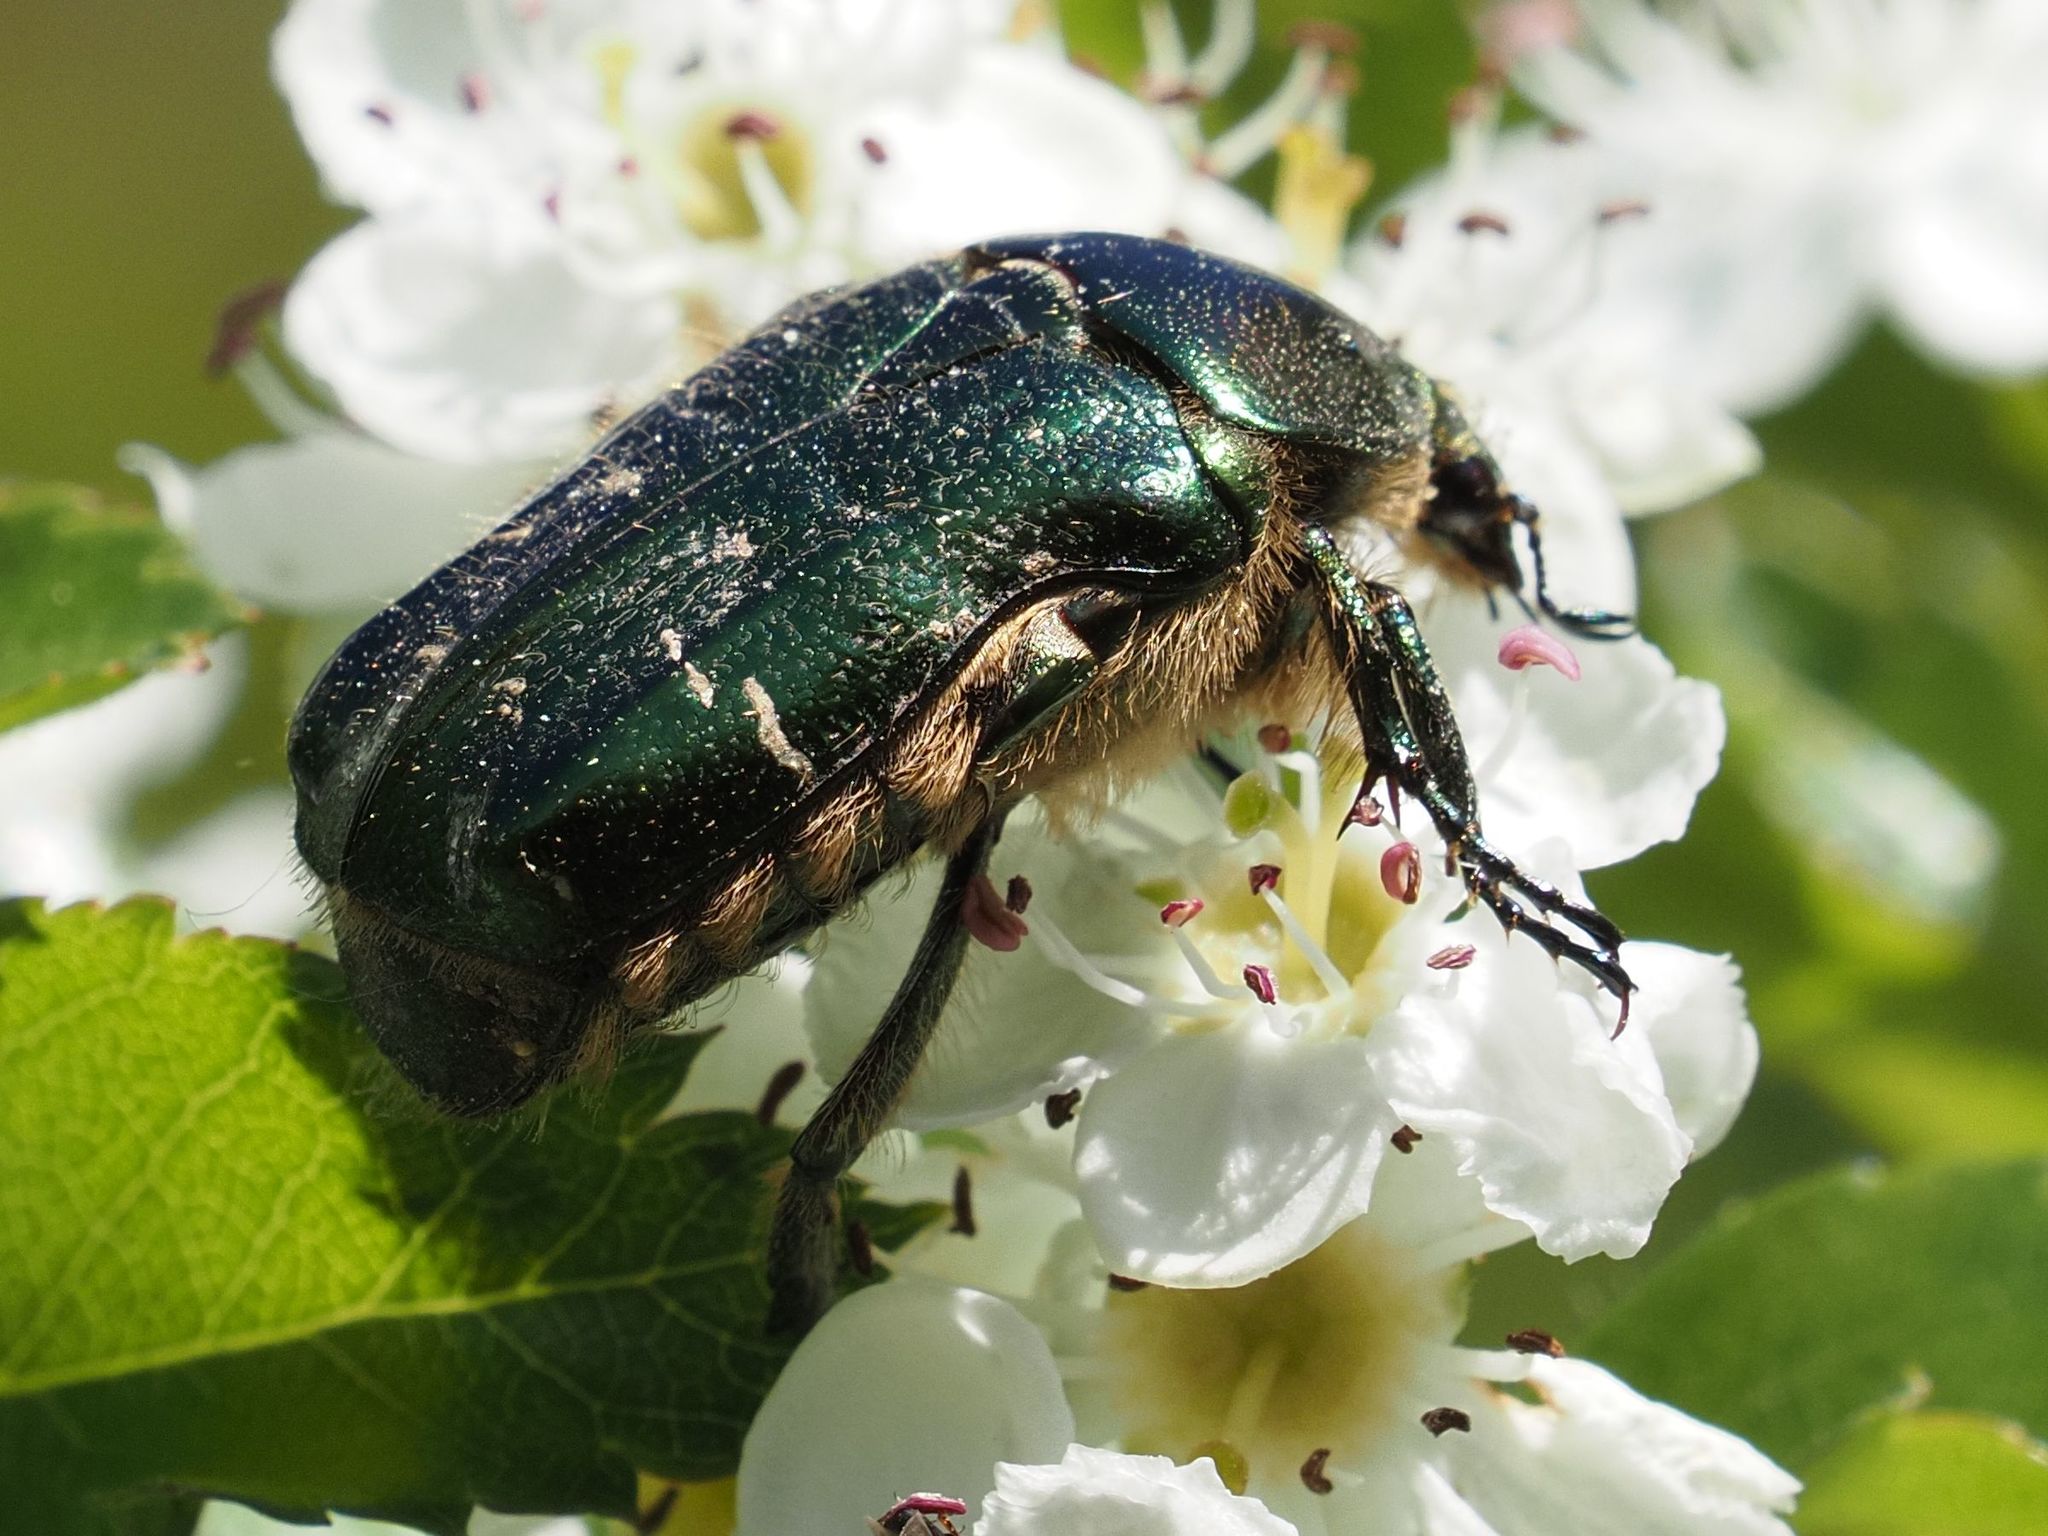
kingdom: Animalia
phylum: Arthropoda
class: Insecta
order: Coleoptera
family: Scarabaeidae
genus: Cetonia
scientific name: Cetonia aurata
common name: Rose chafer
